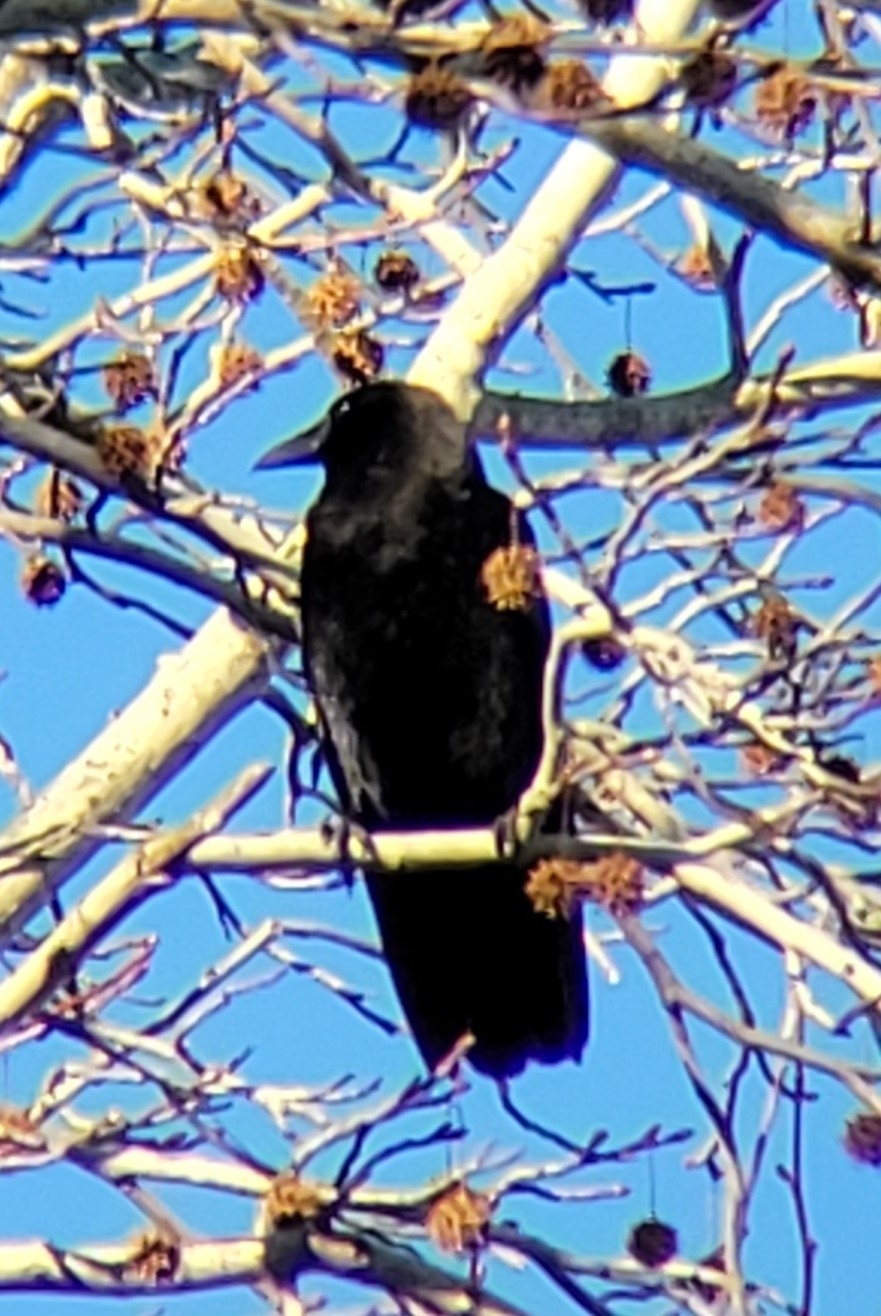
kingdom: Animalia
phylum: Chordata
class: Aves
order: Passeriformes
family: Corvidae
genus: Corvus
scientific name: Corvus brachyrhynchos
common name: American crow
